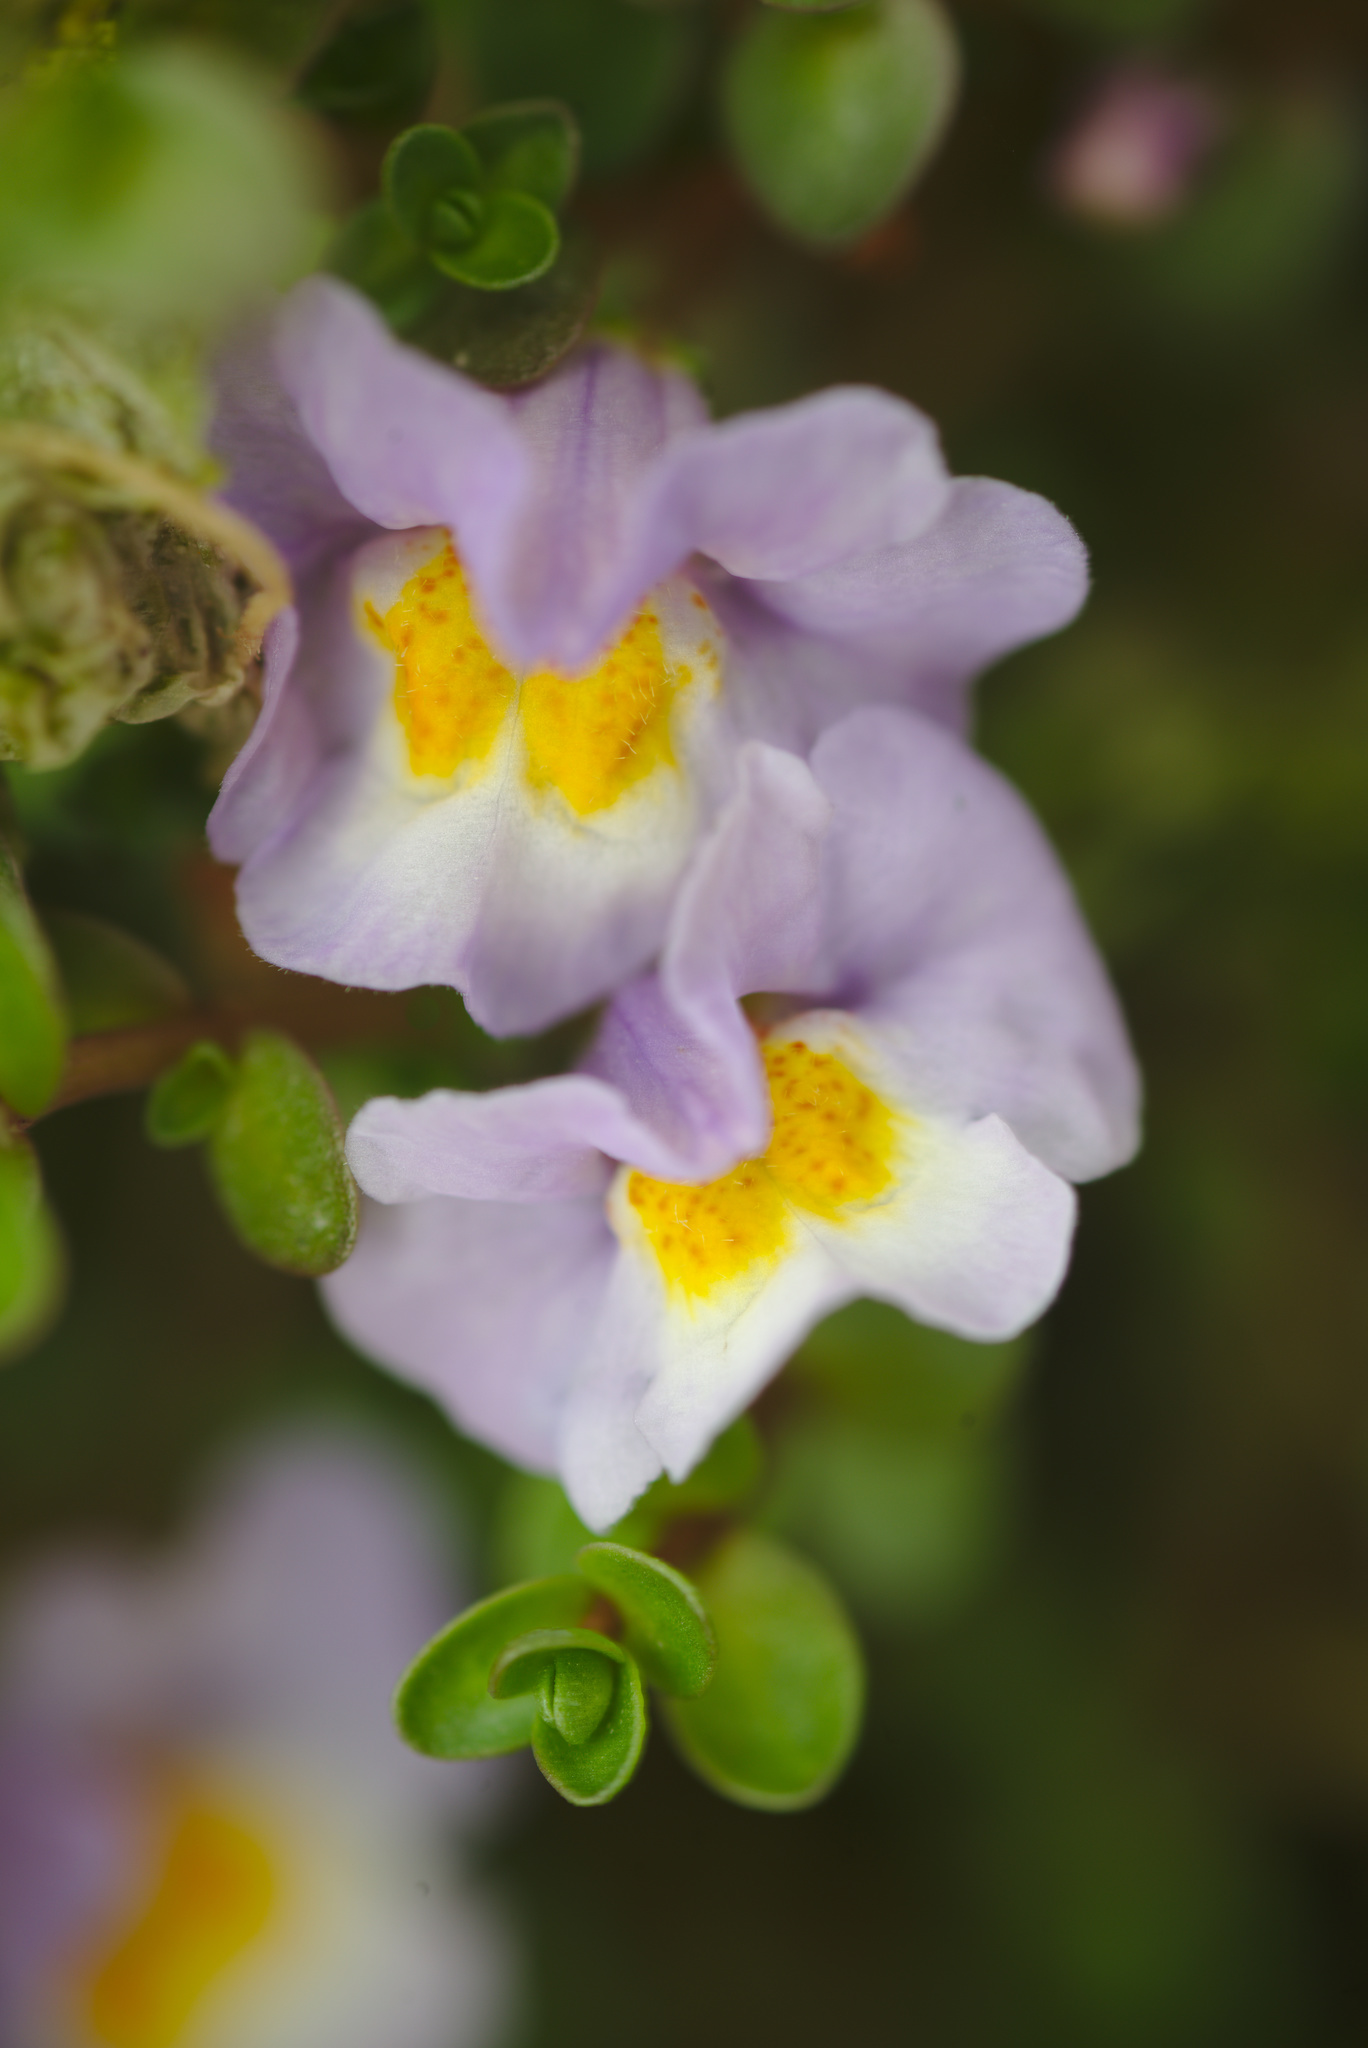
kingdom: Plantae
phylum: Tracheophyta
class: Magnoliopsida
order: Lamiales
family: Phrymaceae
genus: Thyridia
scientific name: Thyridia repens
